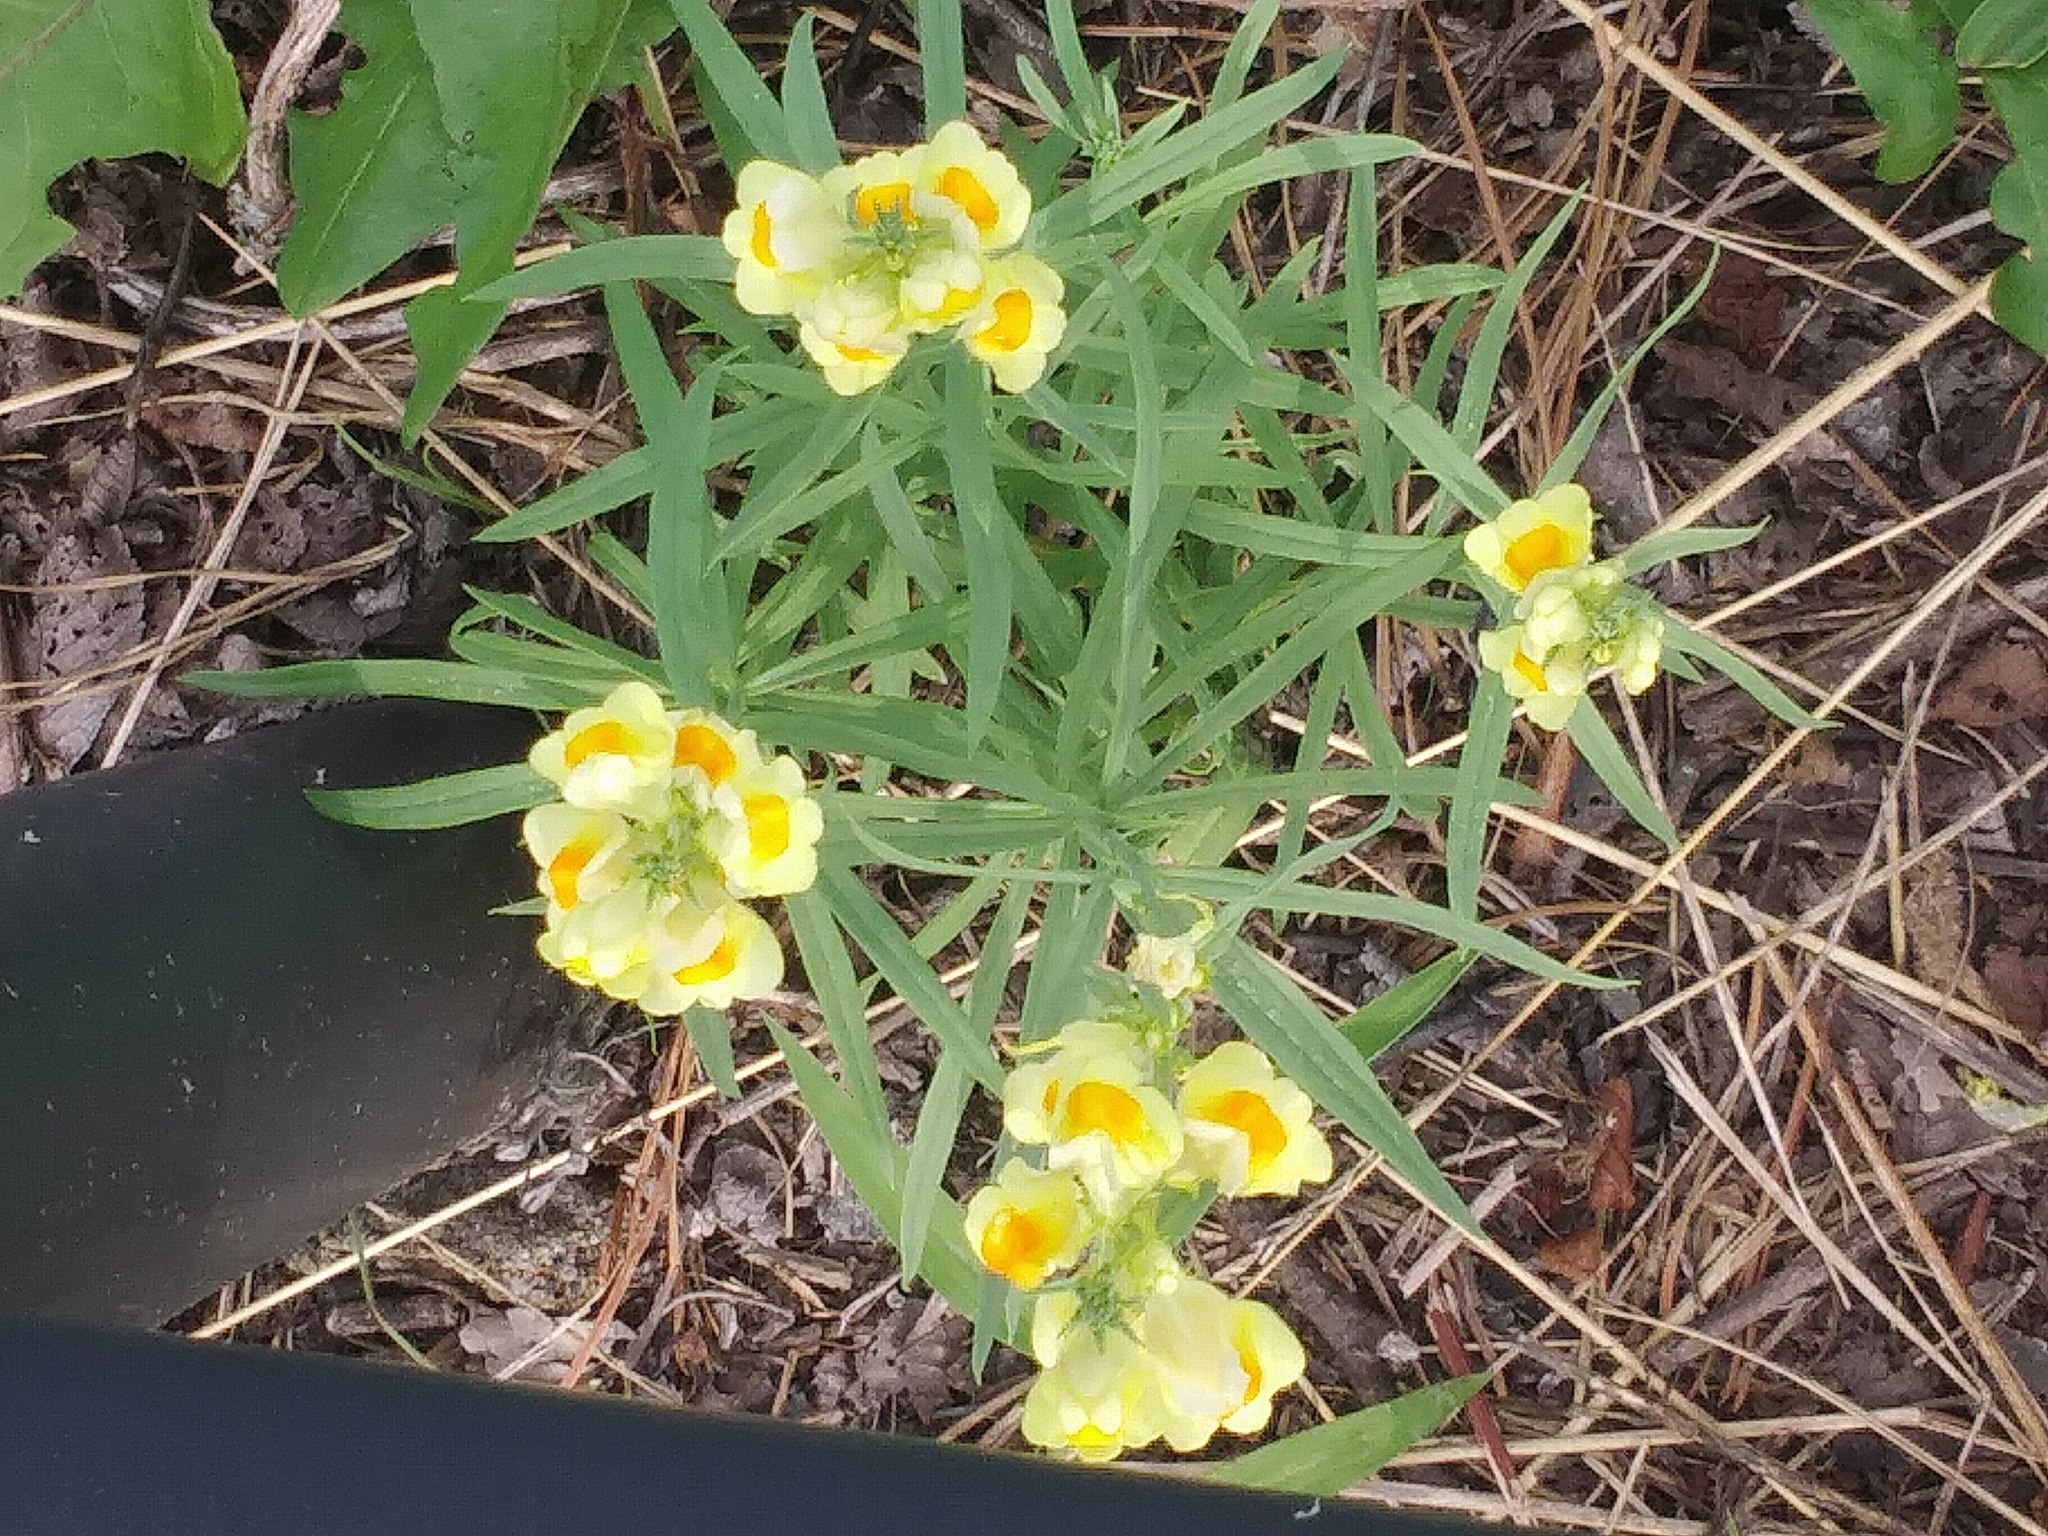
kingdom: Plantae
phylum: Tracheophyta
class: Magnoliopsida
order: Lamiales
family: Plantaginaceae
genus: Linaria
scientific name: Linaria vulgaris
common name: Butter and eggs
